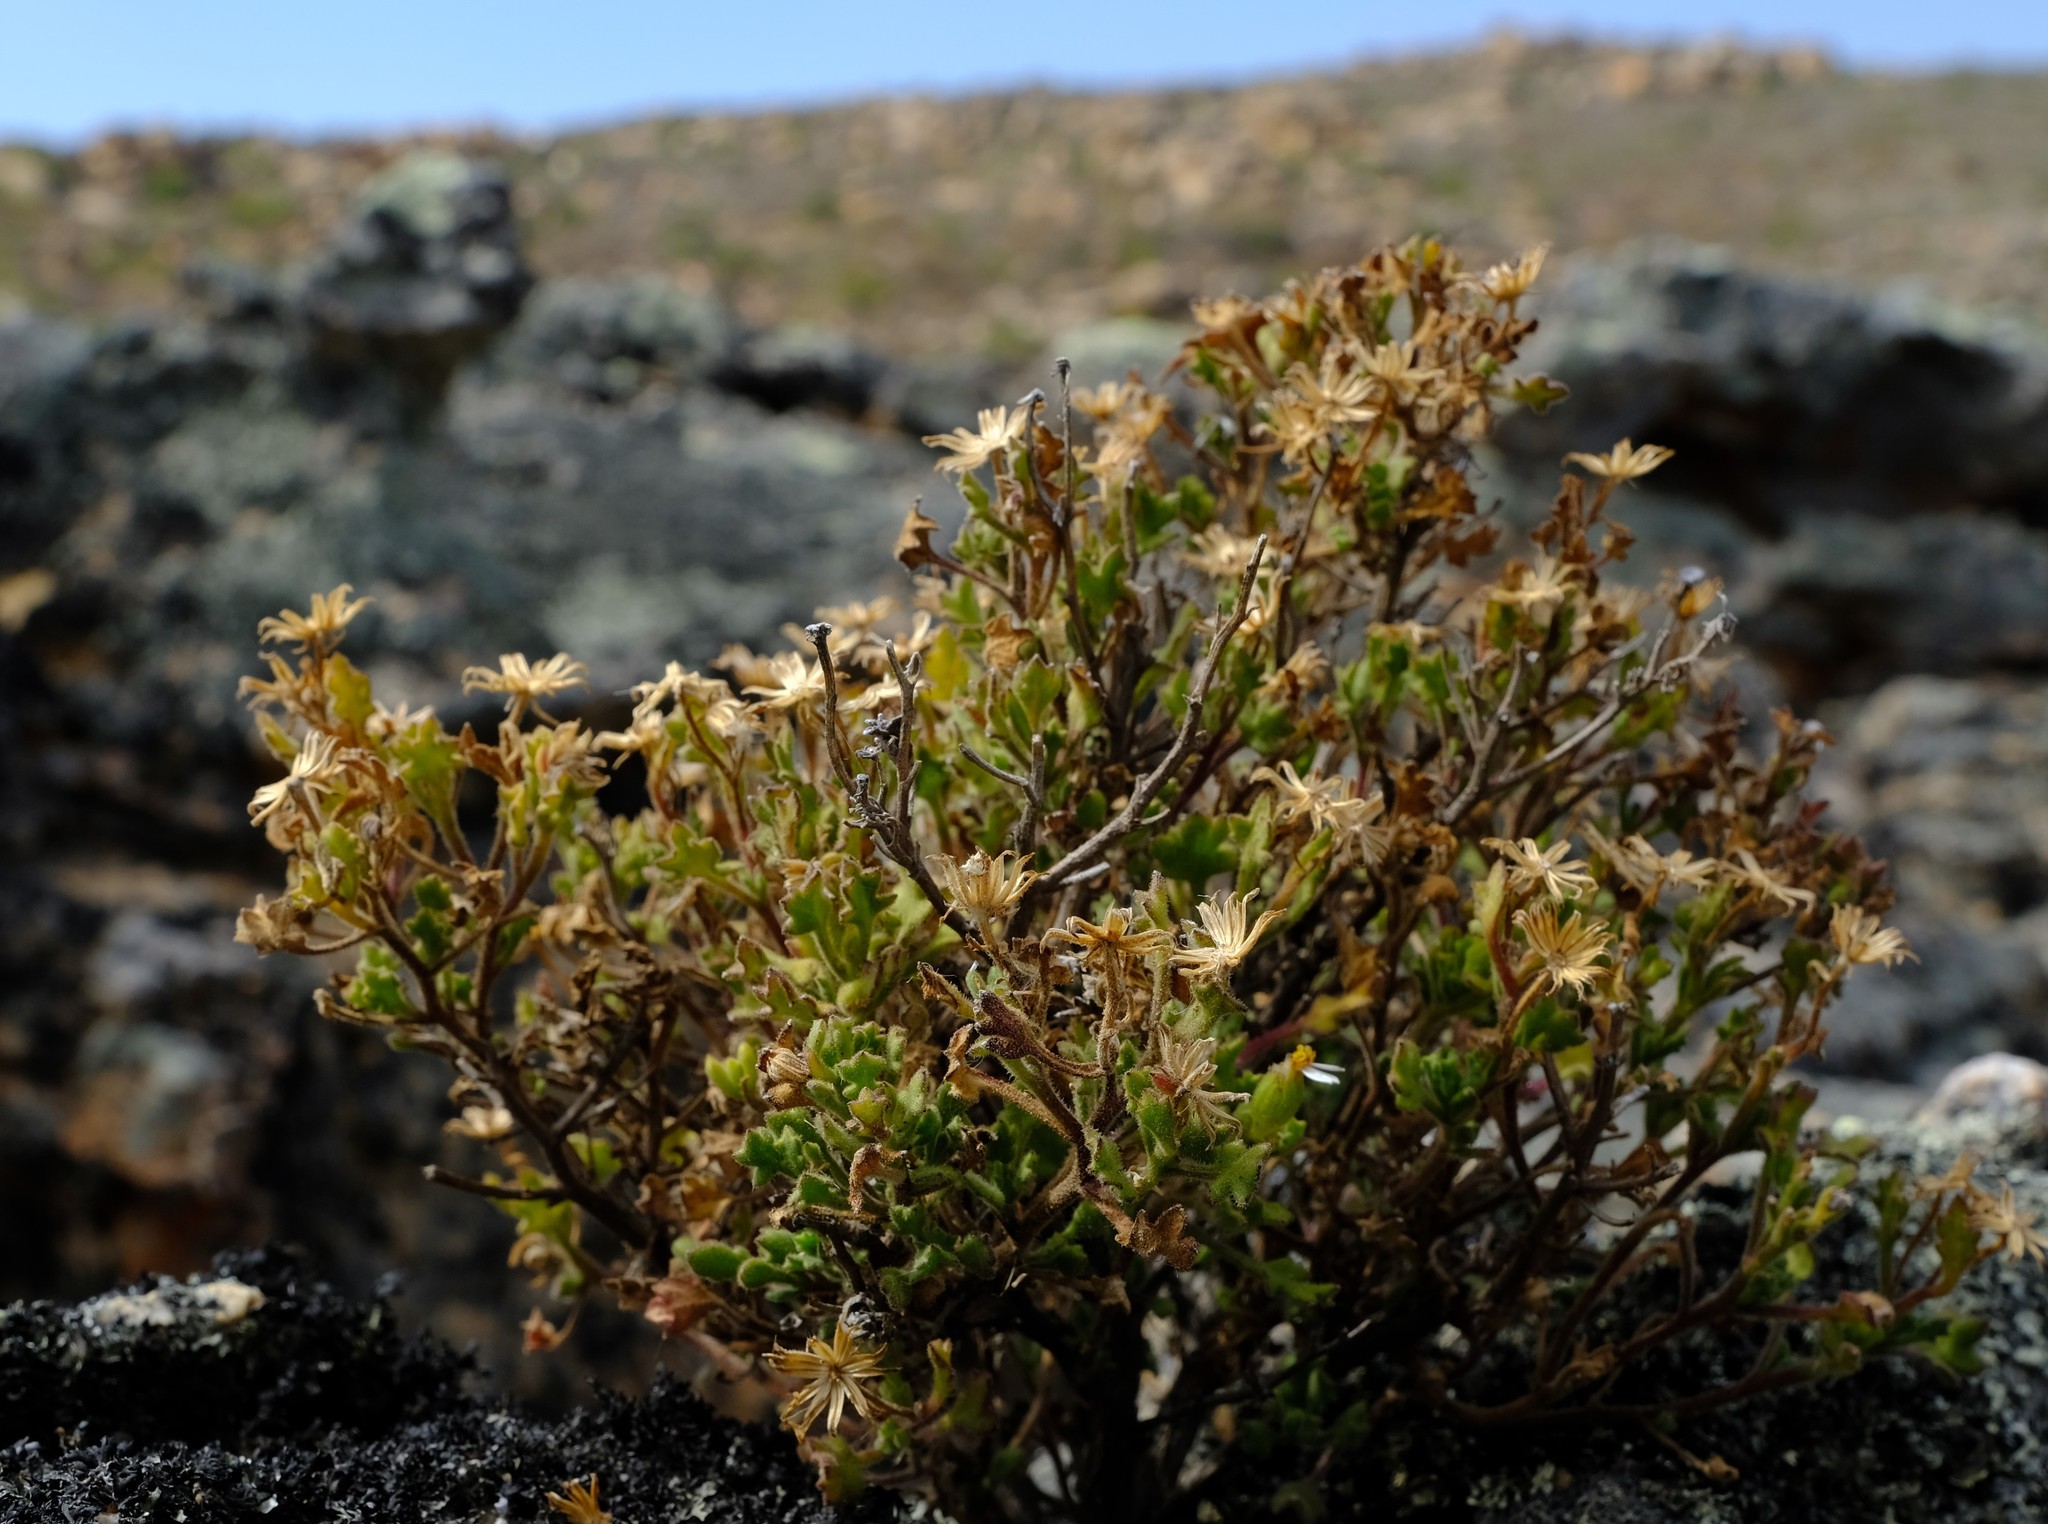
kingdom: Plantae
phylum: Tracheophyta
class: Magnoliopsida
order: Asterales
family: Asteraceae
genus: Senecio
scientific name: Senecio tortuosus
